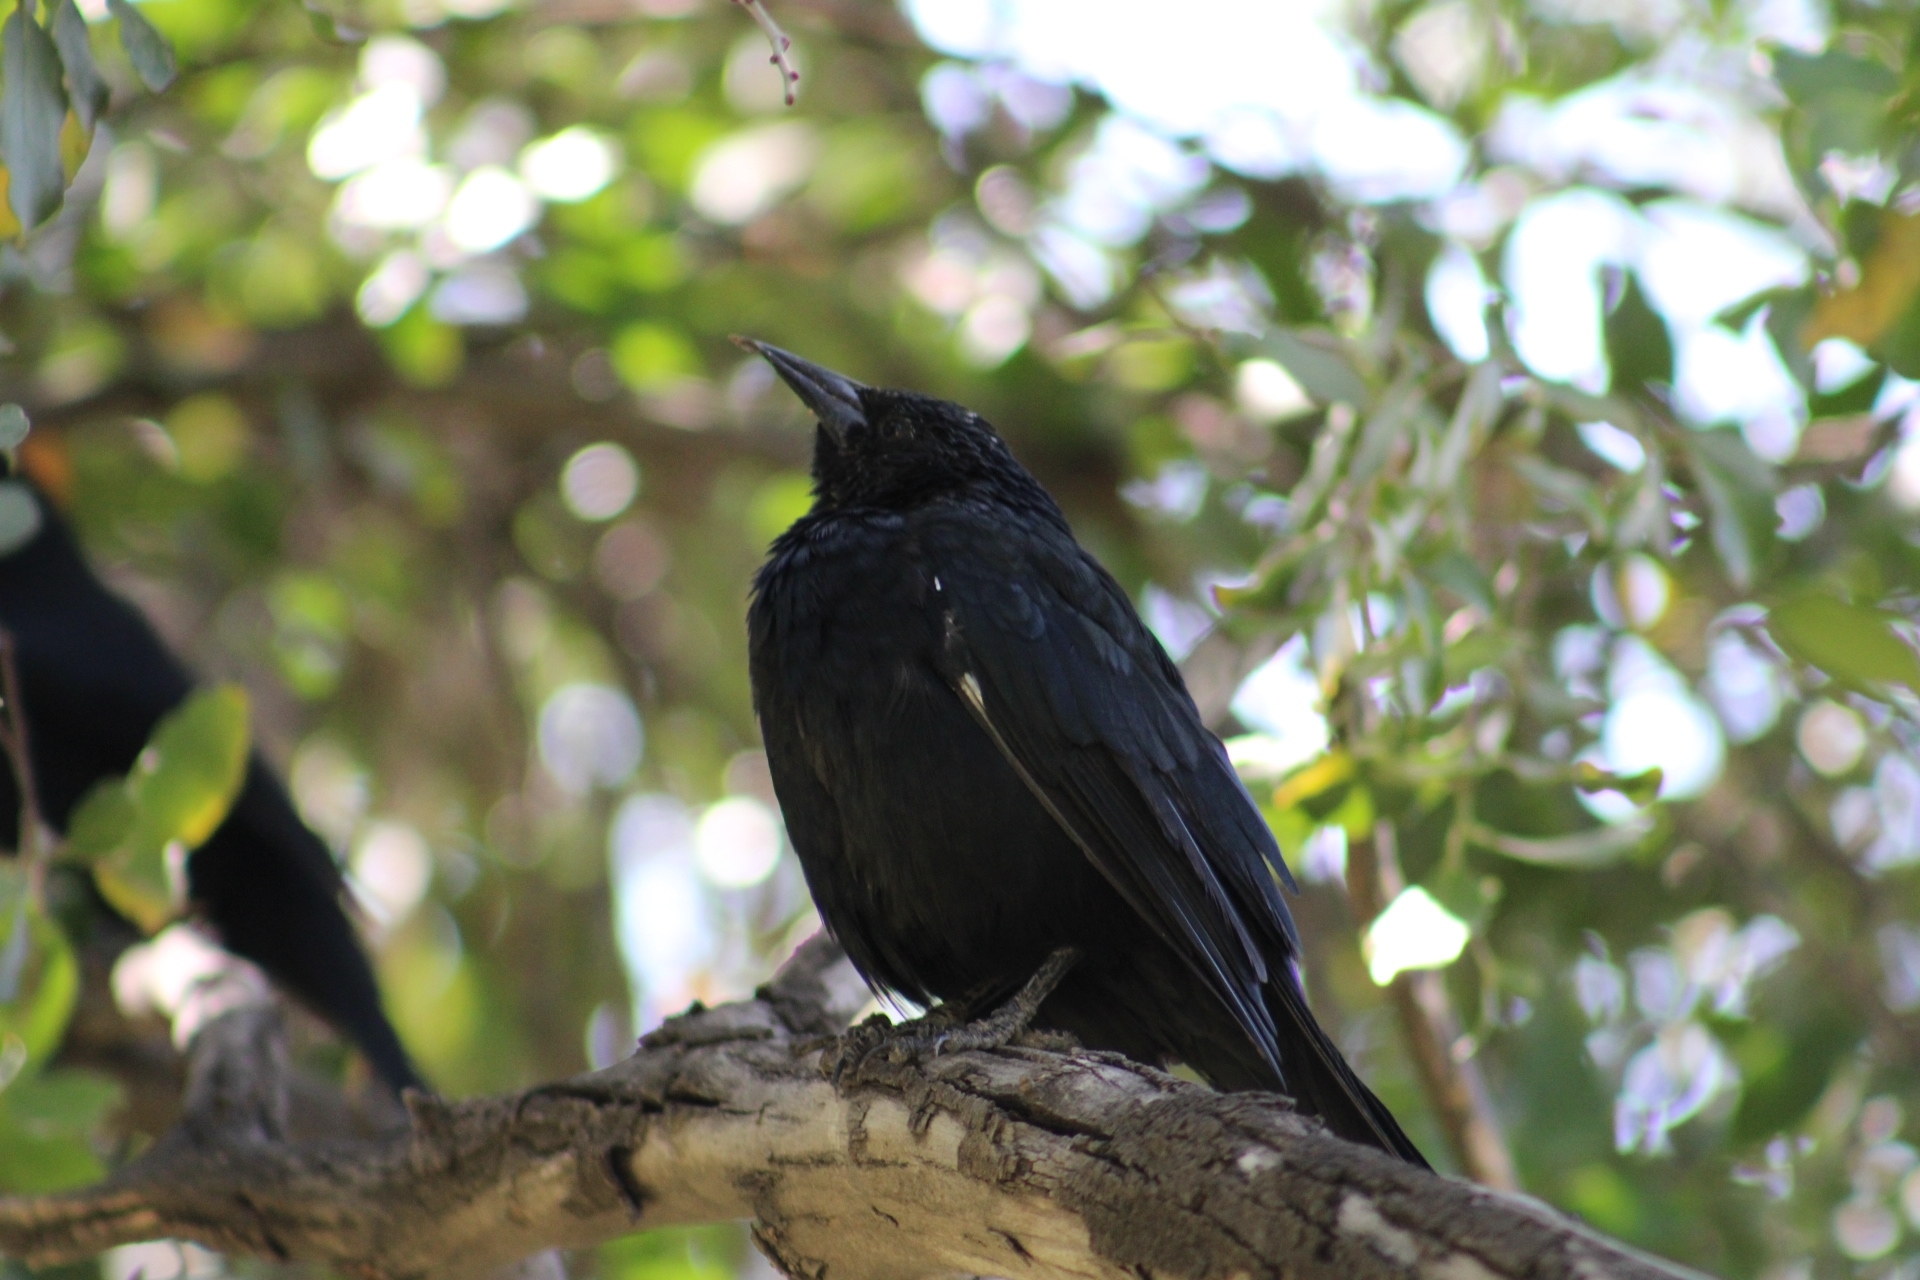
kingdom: Animalia
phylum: Chordata
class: Aves
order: Passeriformes
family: Icteridae
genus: Curaeus
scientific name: Curaeus curaeus
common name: Austral blackbird
